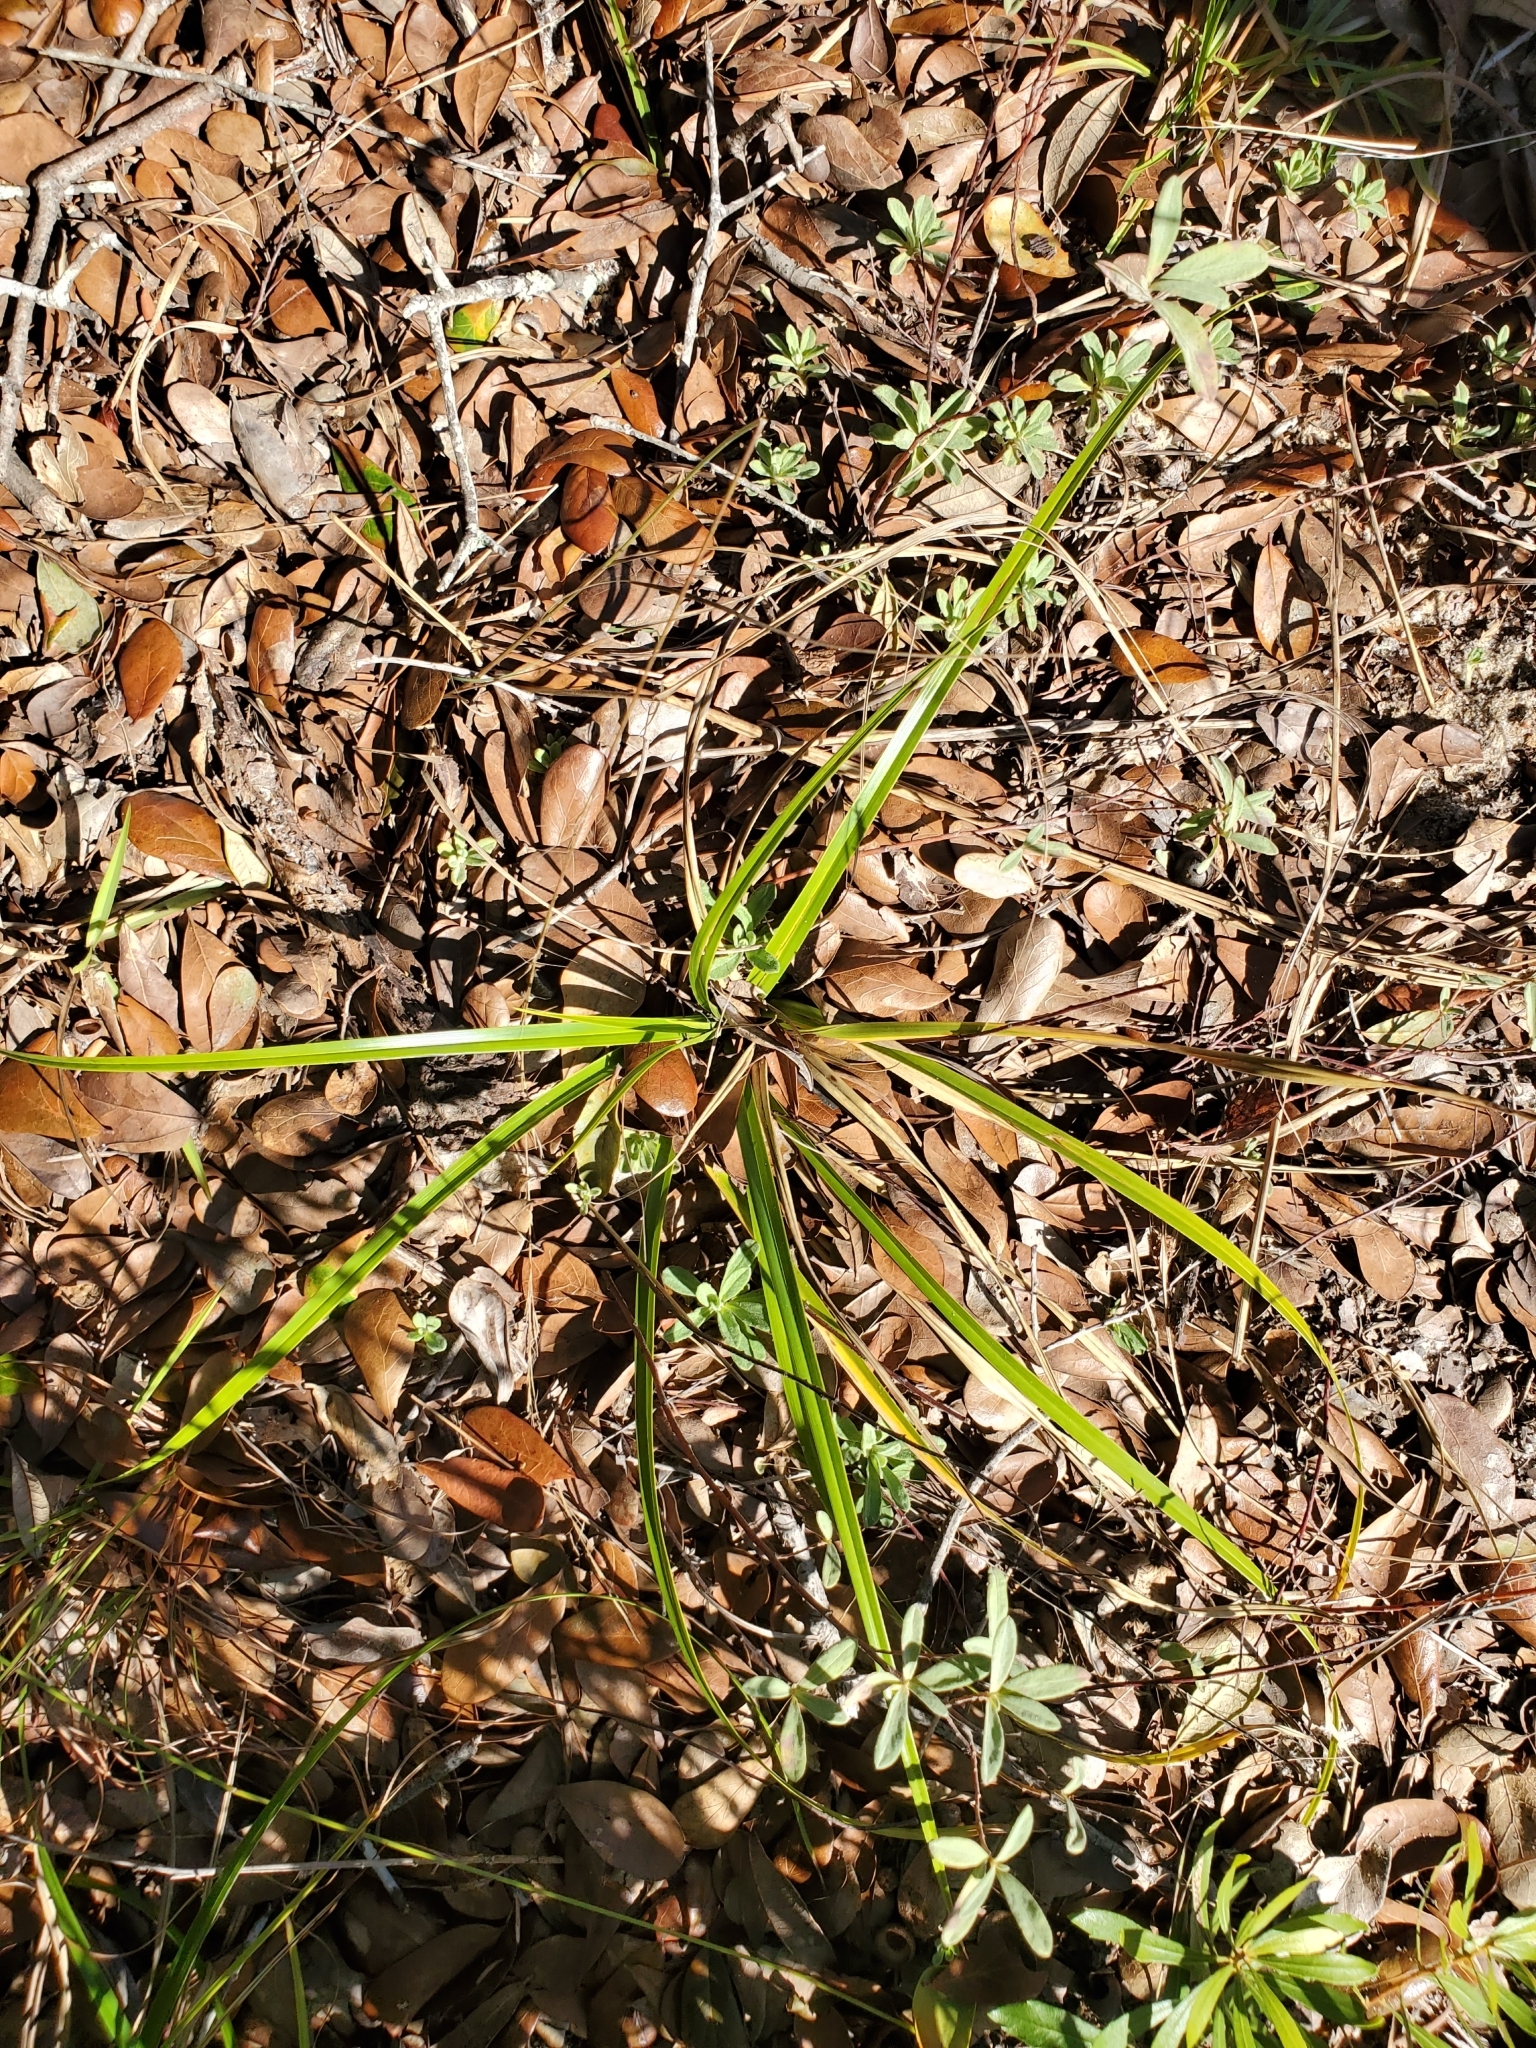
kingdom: Plantae
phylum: Tracheophyta
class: Liliopsida
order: Poales
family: Cyperaceae
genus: Rhynchospora
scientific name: Rhynchospora megalocarpa
